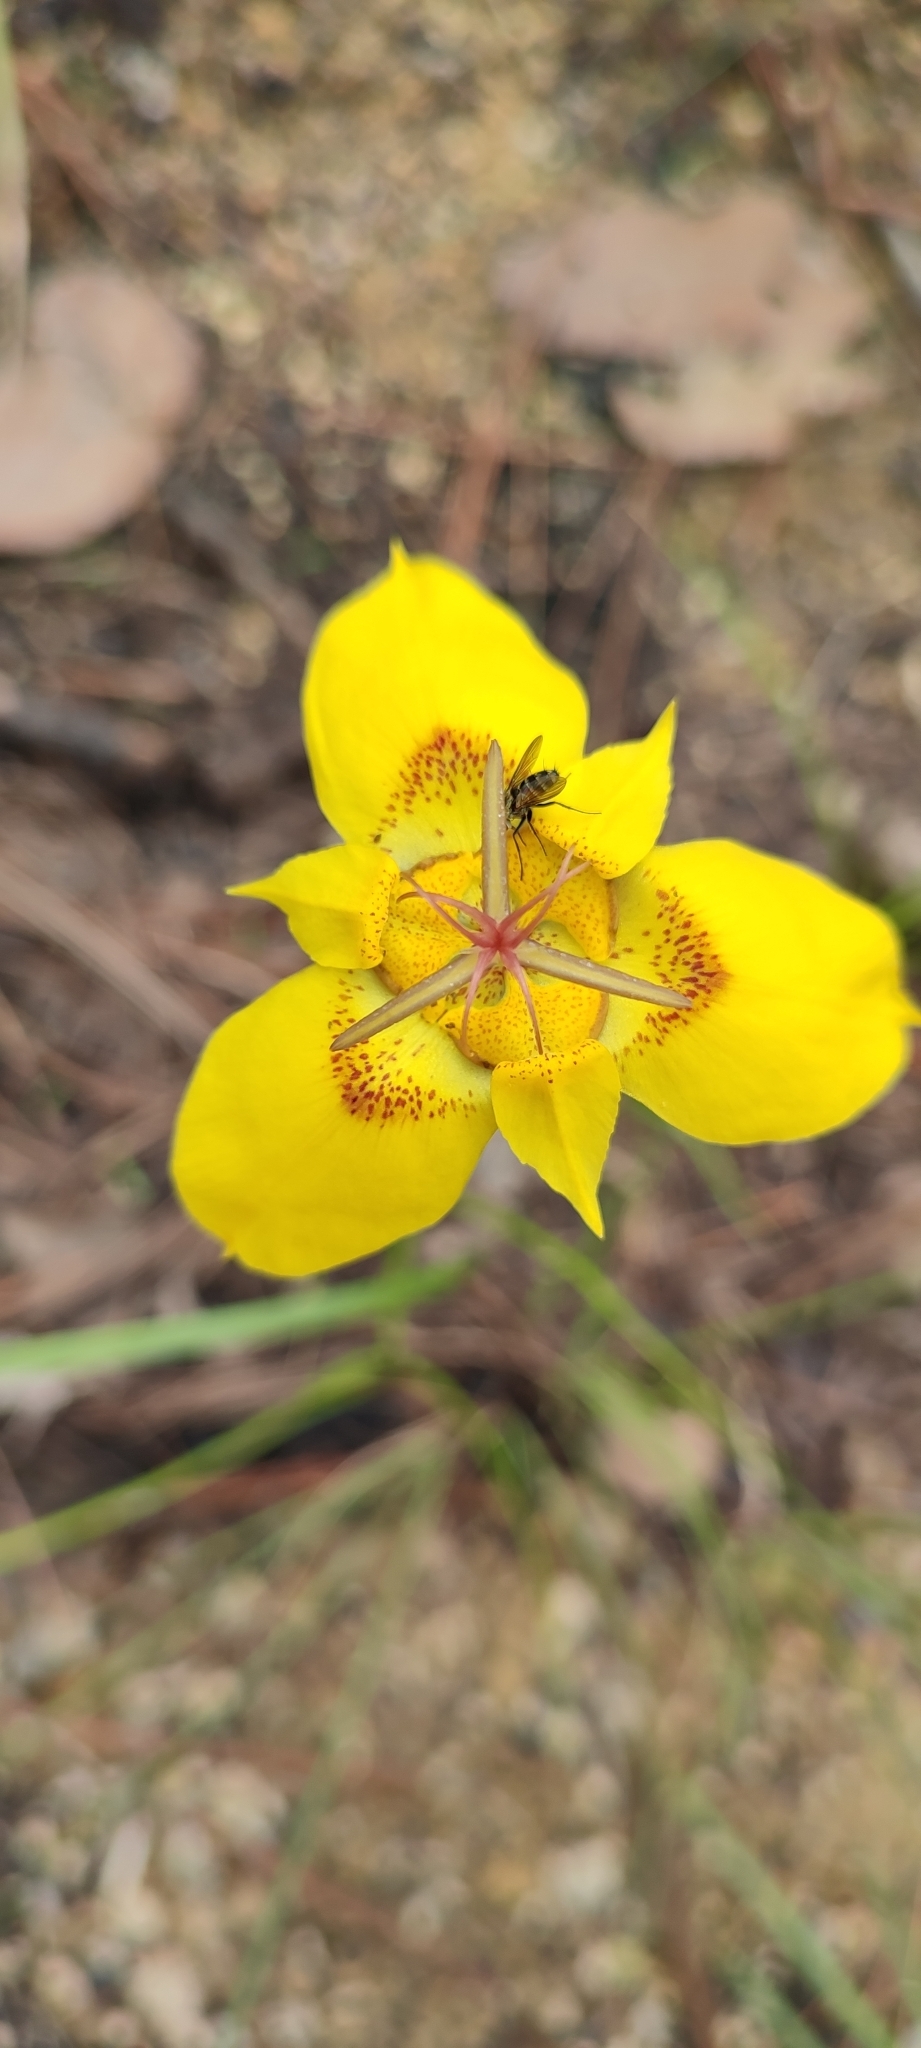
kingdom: Plantae
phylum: Tracheophyta
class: Liliopsida
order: Asparagales
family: Iridaceae
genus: Tigridia
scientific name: Tigridia chrysantha
